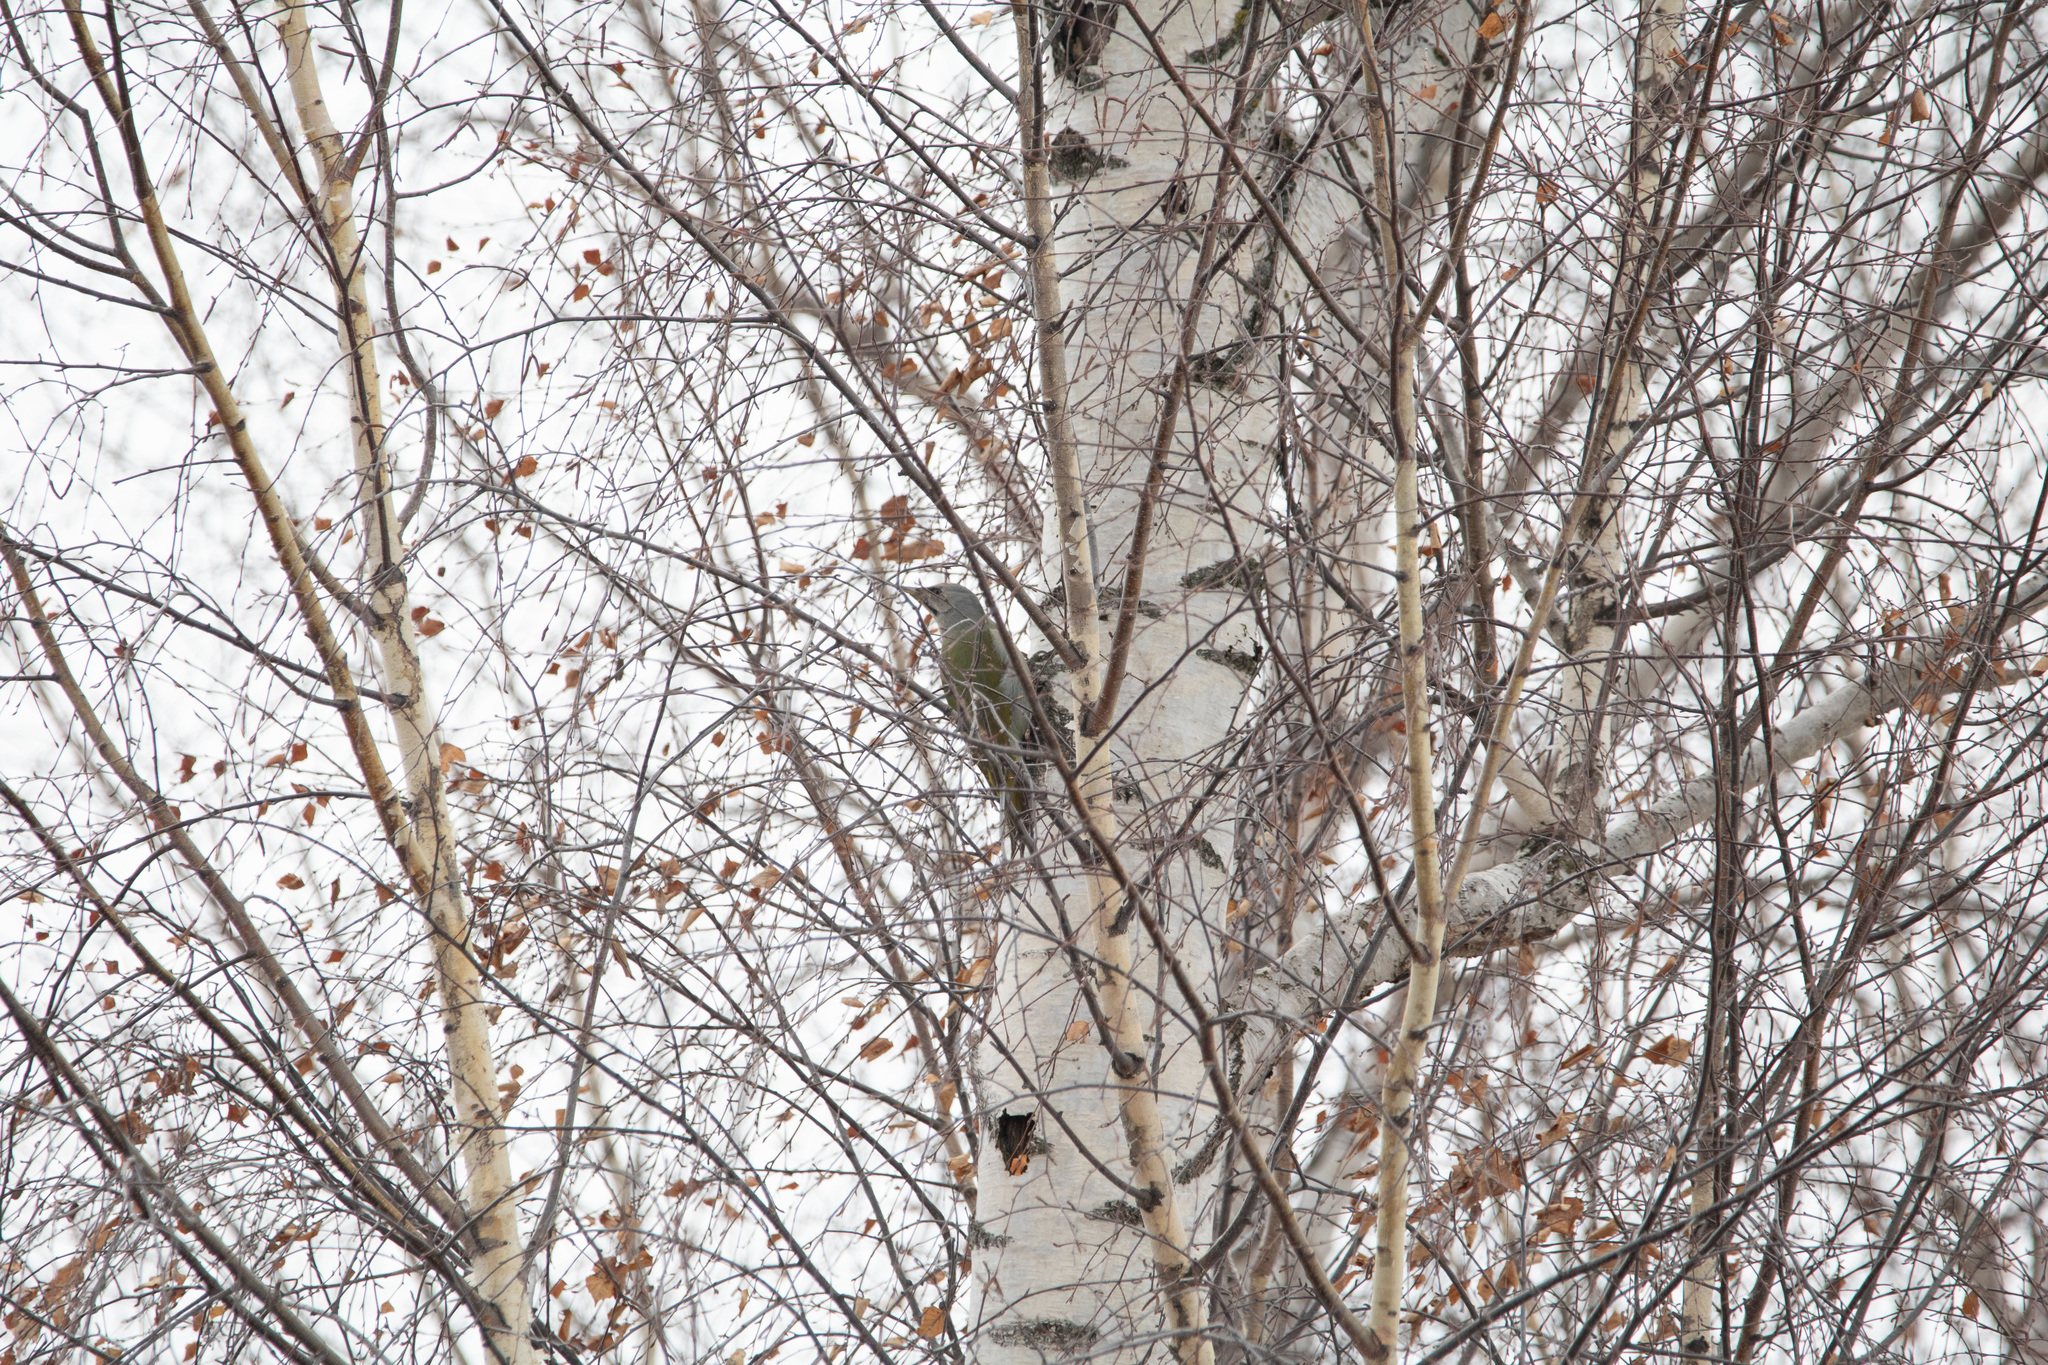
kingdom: Animalia
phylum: Chordata
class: Aves
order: Piciformes
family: Picidae
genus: Picus
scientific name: Picus canus
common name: Grey-headed woodpecker
